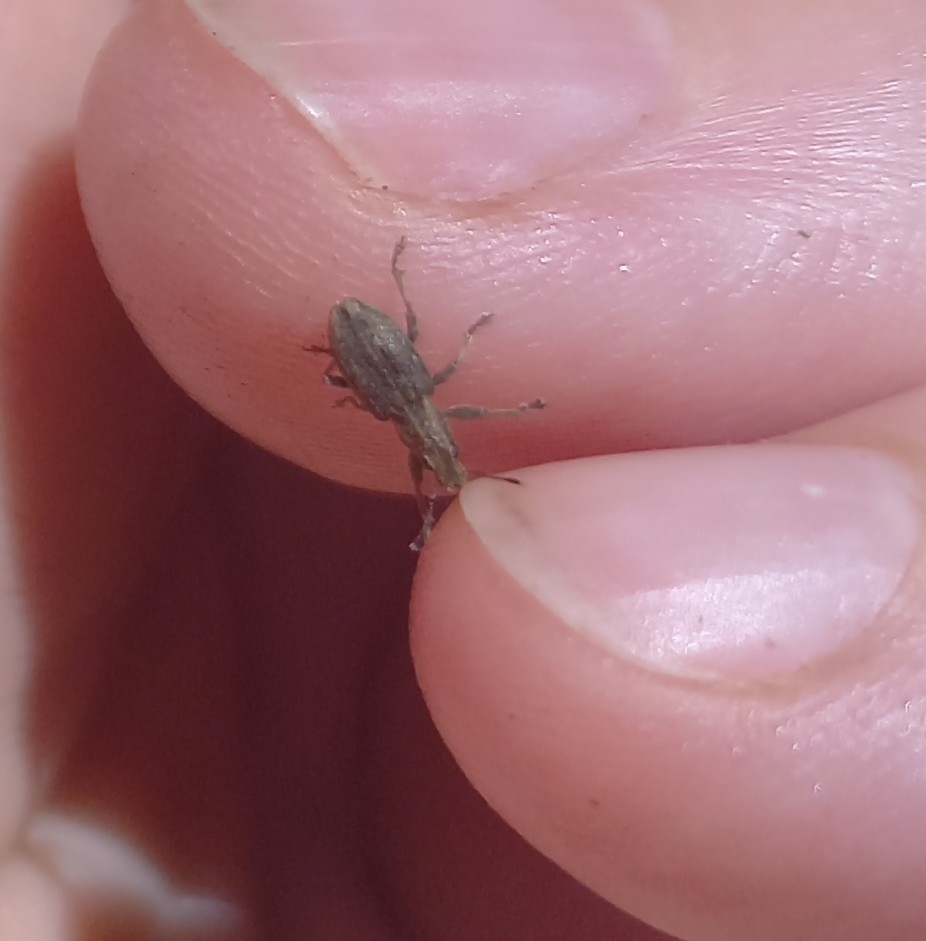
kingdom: Animalia
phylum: Arthropoda
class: Insecta
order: Coleoptera
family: Curculionidae
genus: Sitona
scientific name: Sitona obsoletus
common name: Weevil
